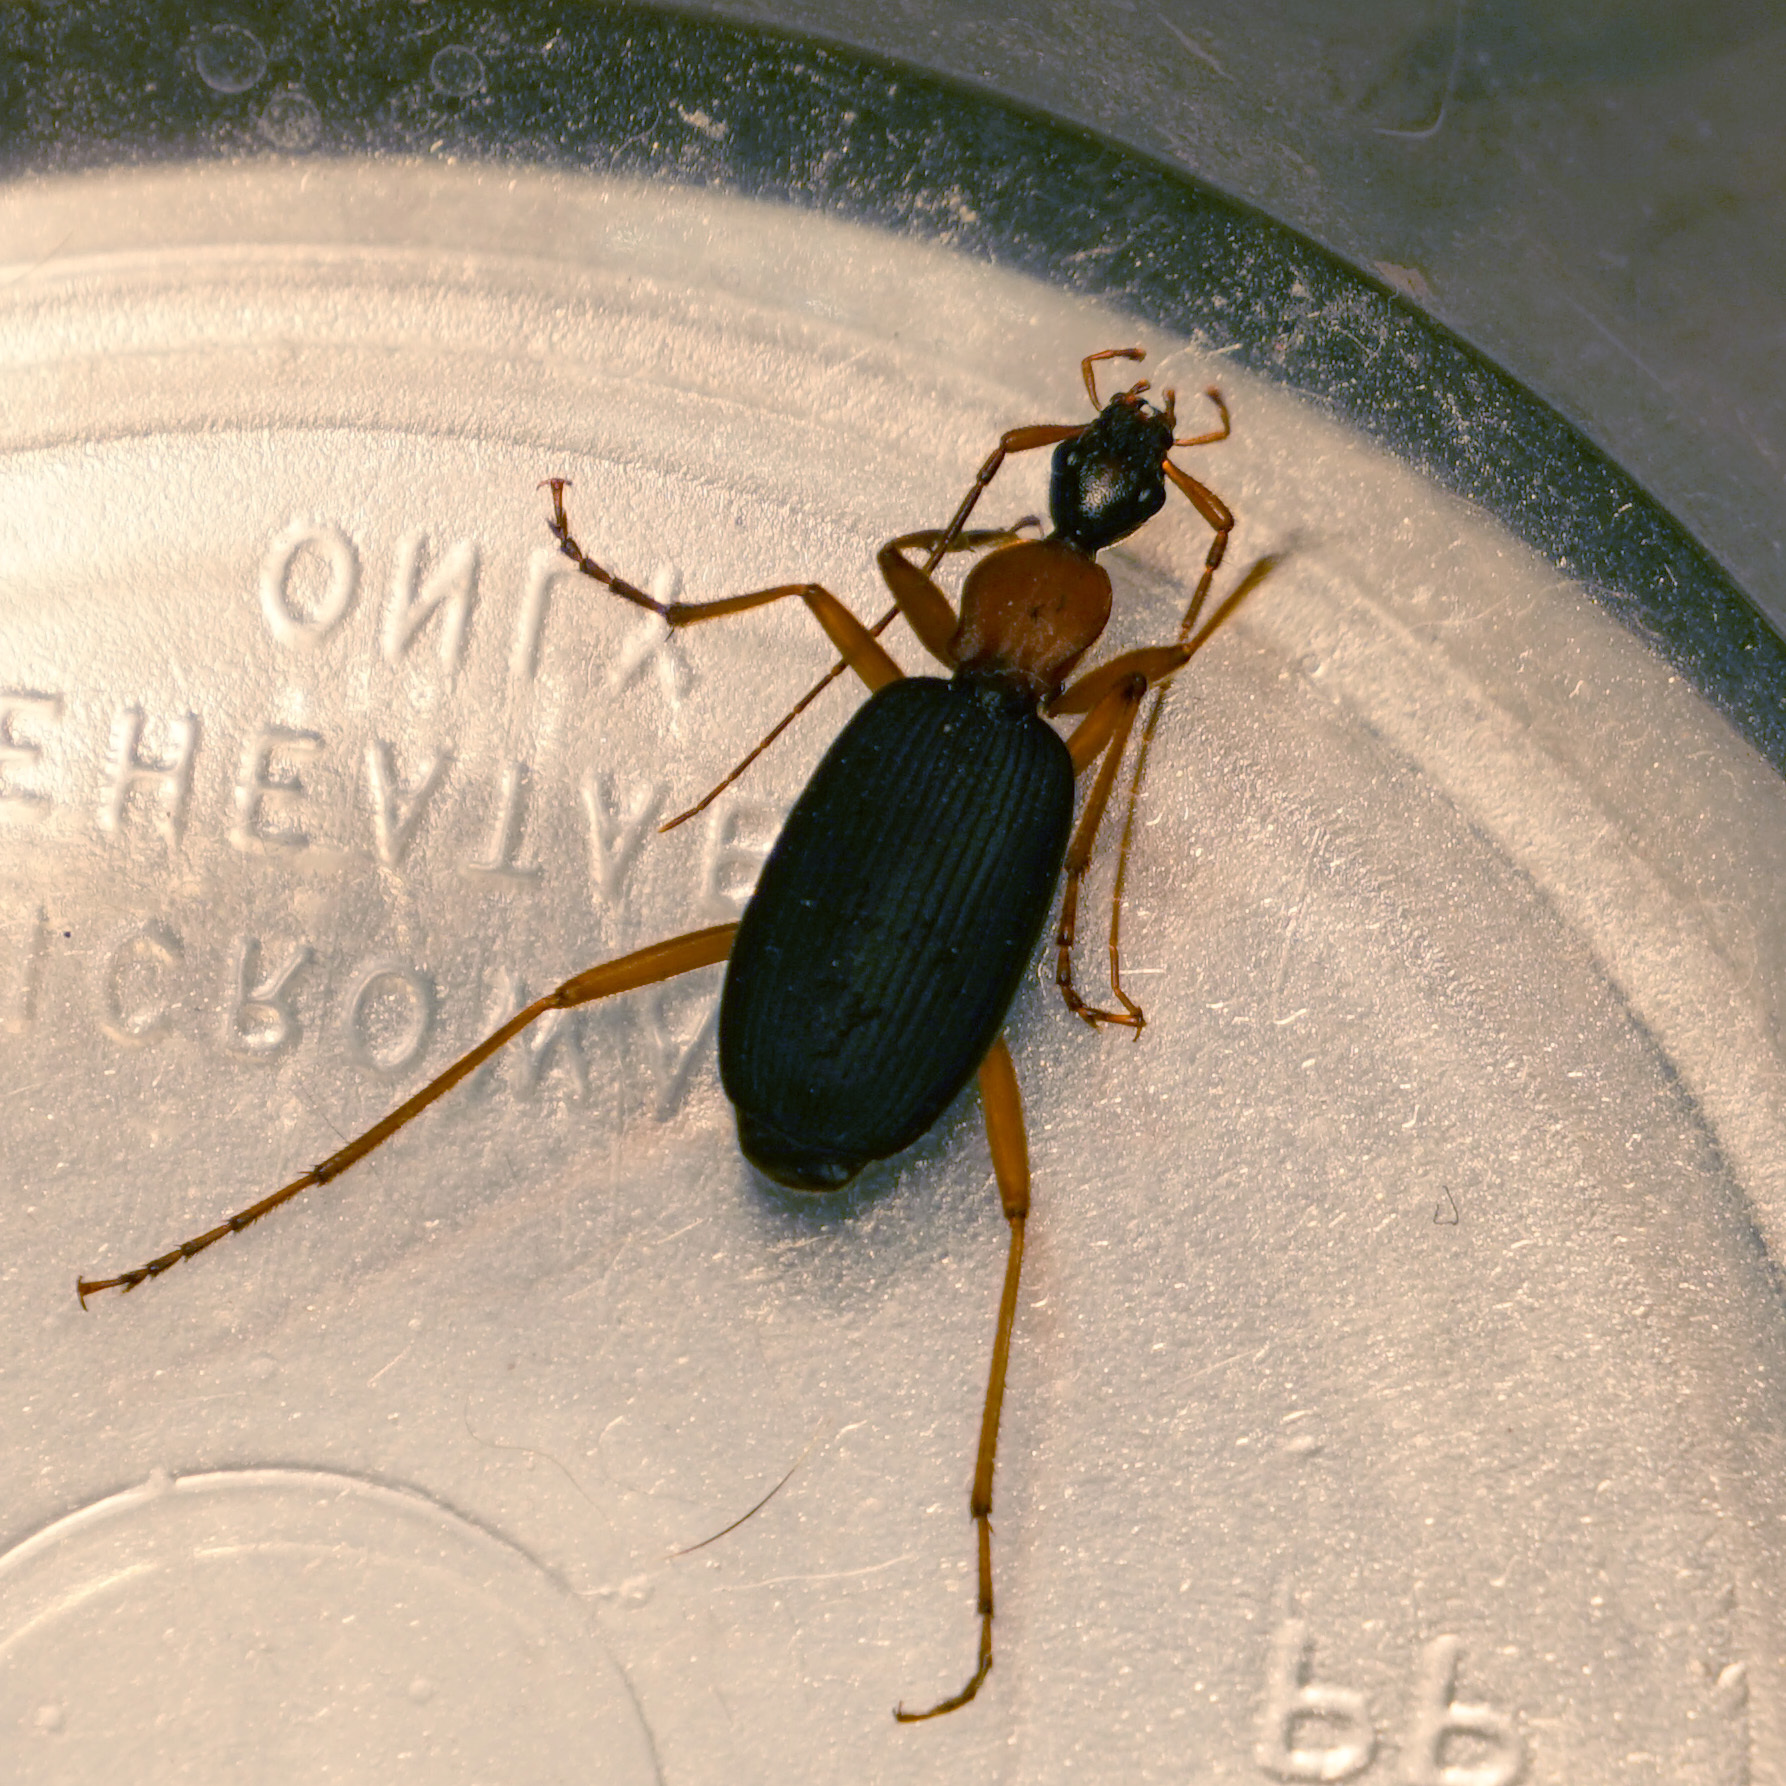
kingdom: Animalia
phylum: Arthropoda
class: Insecta
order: Coleoptera
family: Carabidae
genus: Galerita
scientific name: Galerita bicolor
